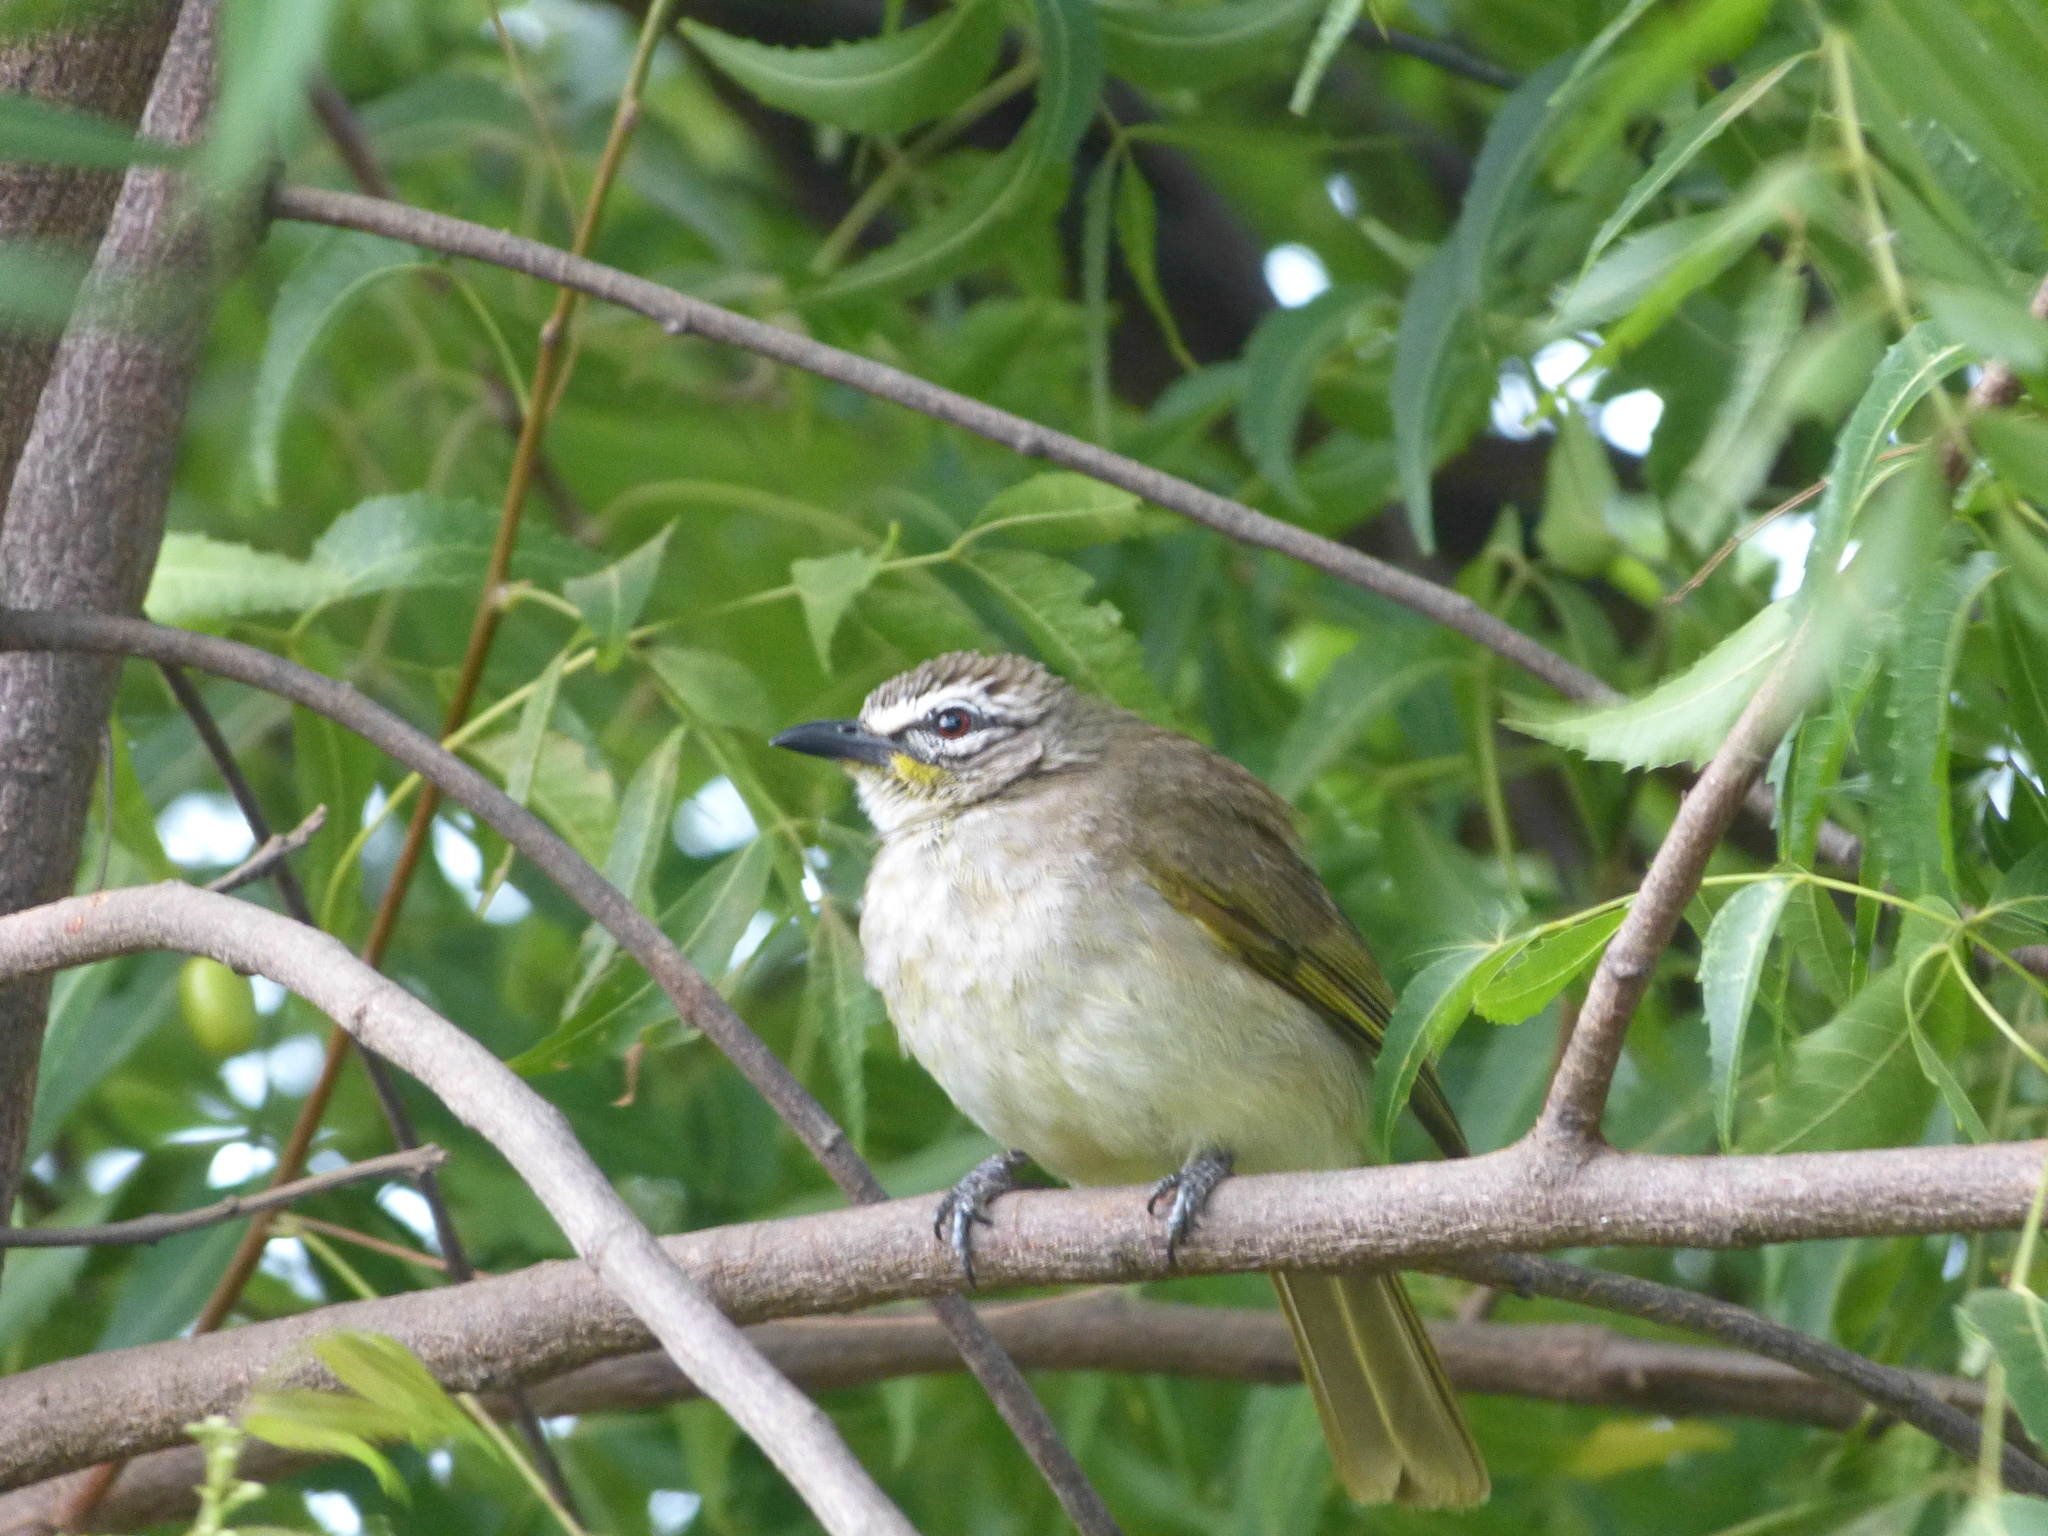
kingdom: Animalia
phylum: Chordata
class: Aves
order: Passeriformes
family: Pycnonotidae
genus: Pycnonotus
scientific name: Pycnonotus luteolus
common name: White-browed bulbul
